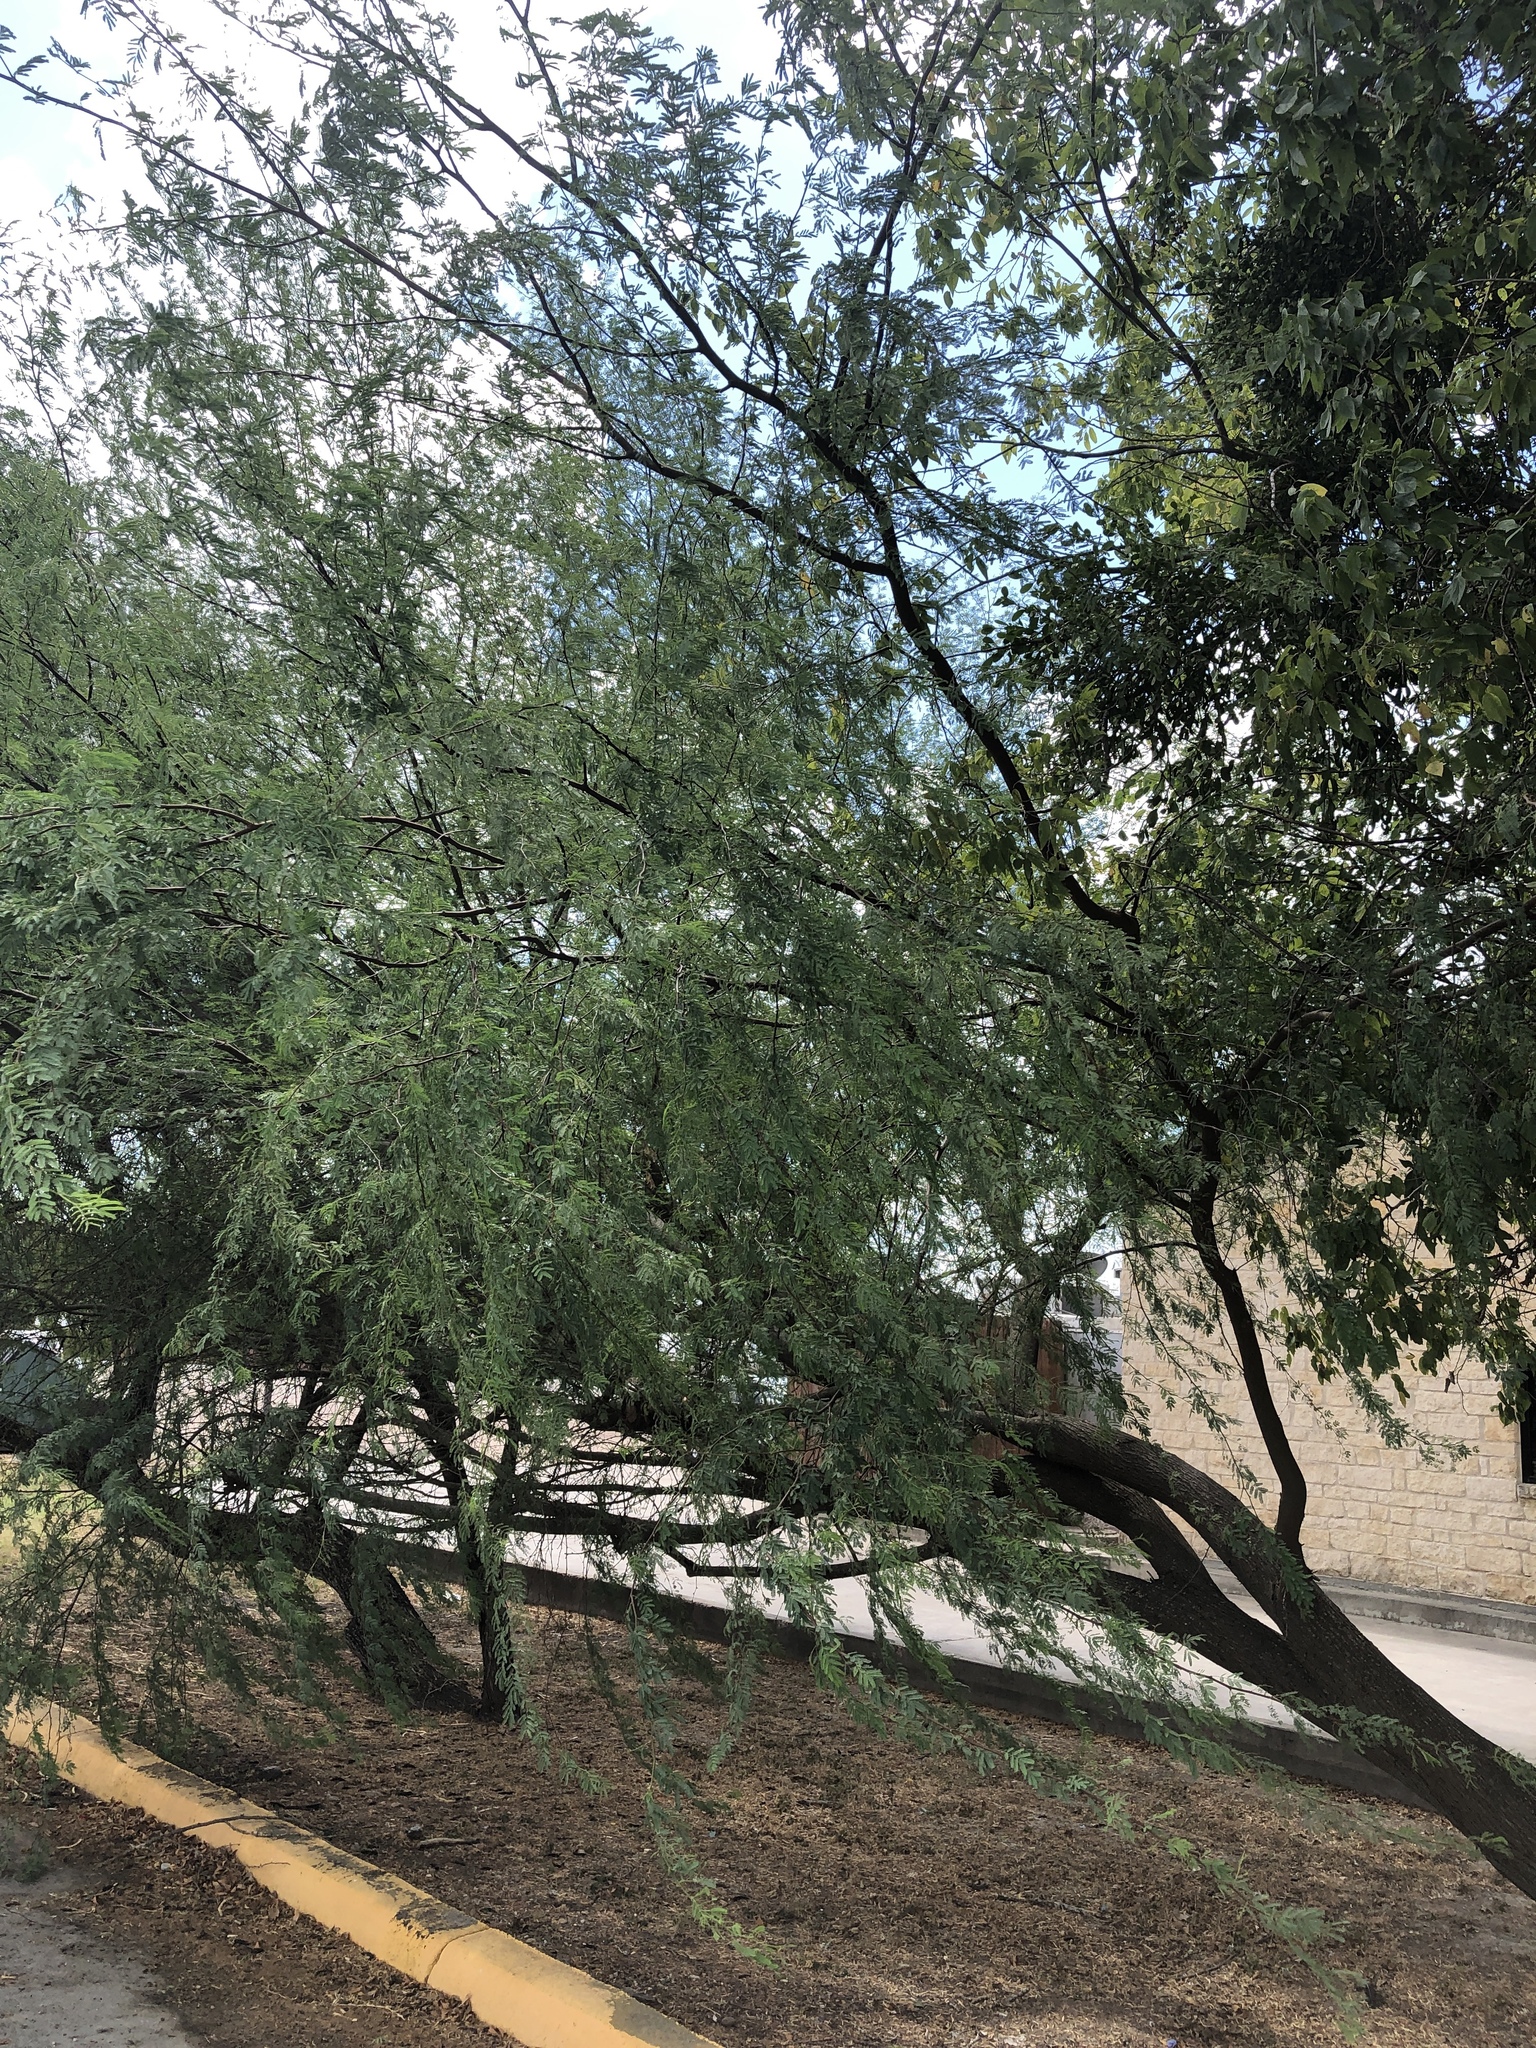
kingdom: Plantae
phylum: Tracheophyta
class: Magnoliopsida
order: Fabales
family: Fabaceae
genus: Vachellia
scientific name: Vachellia farnesiana
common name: Sweet acacia
